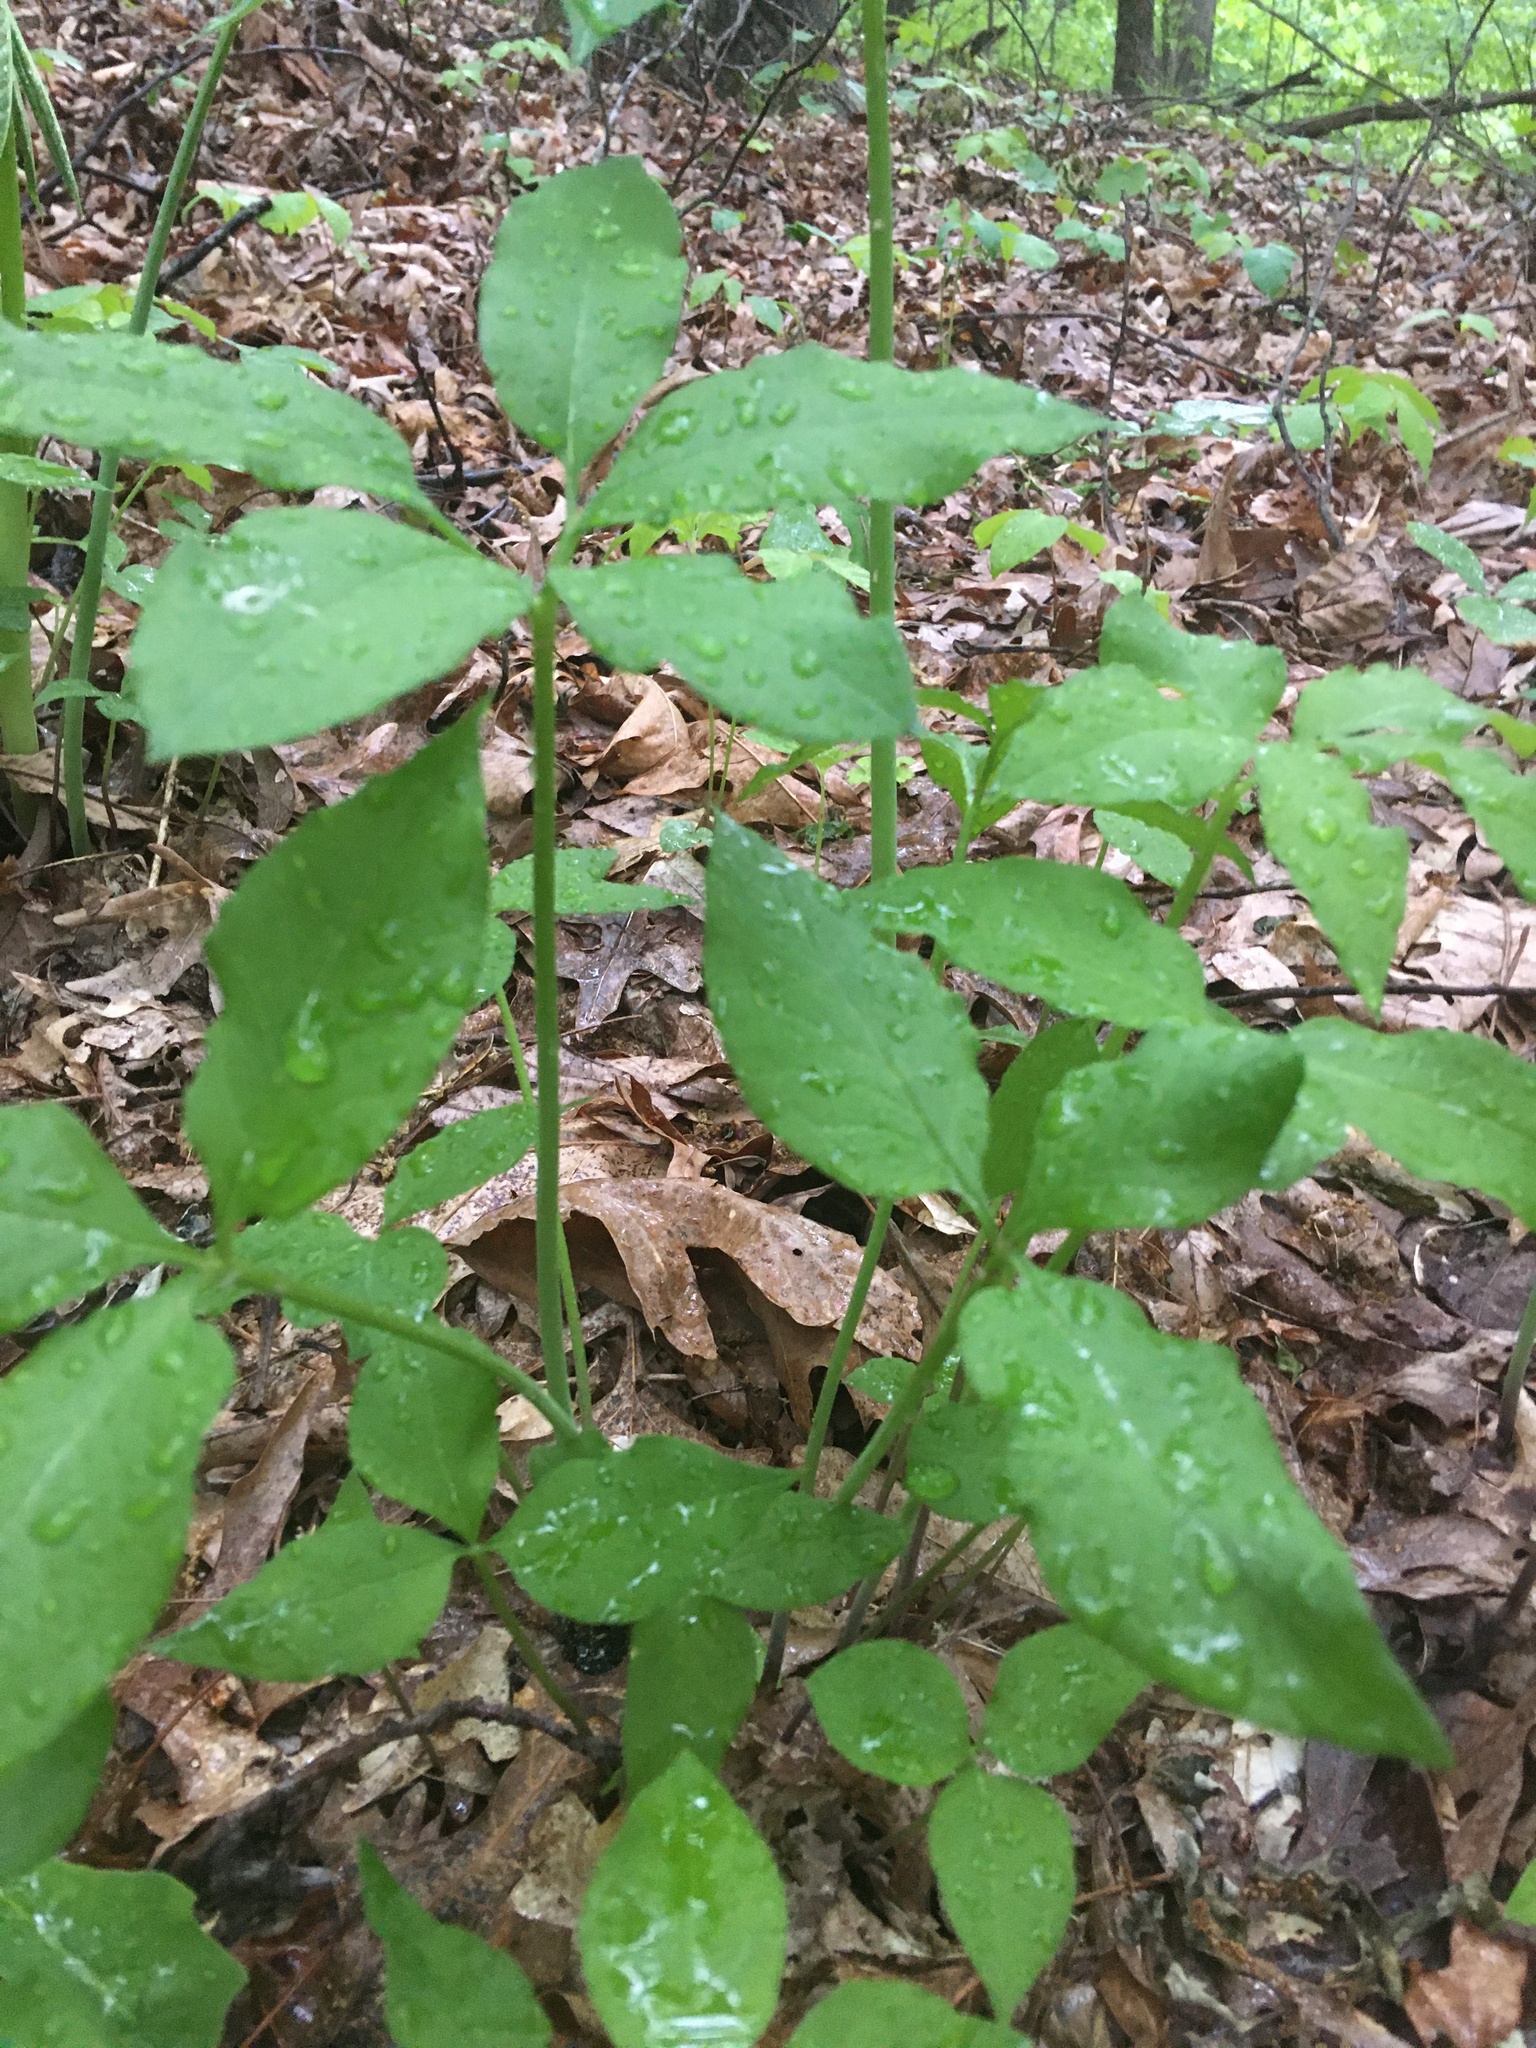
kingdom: Plantae
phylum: Tracheophyta
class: Liliopsida
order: Alismatales
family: Araceae
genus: Arisaema
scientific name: Arisaema dracontium
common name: Dragon-arum
